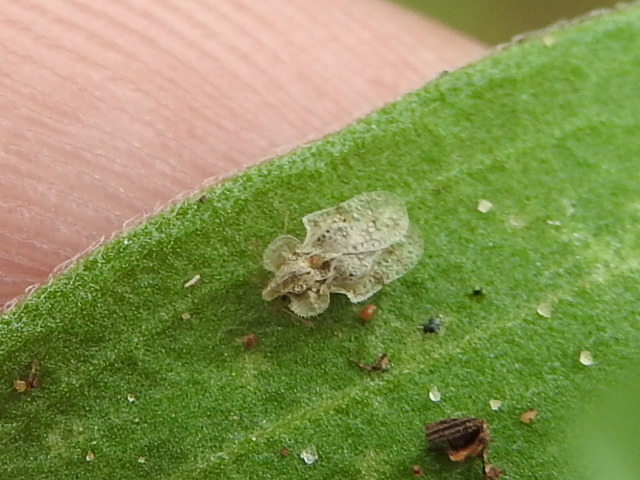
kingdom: Animalia
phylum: Arthropoda
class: Insecta
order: Hemiptera
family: Tingidae
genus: Corythucha
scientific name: Corythucha morrilli
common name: Morrill lace bug
